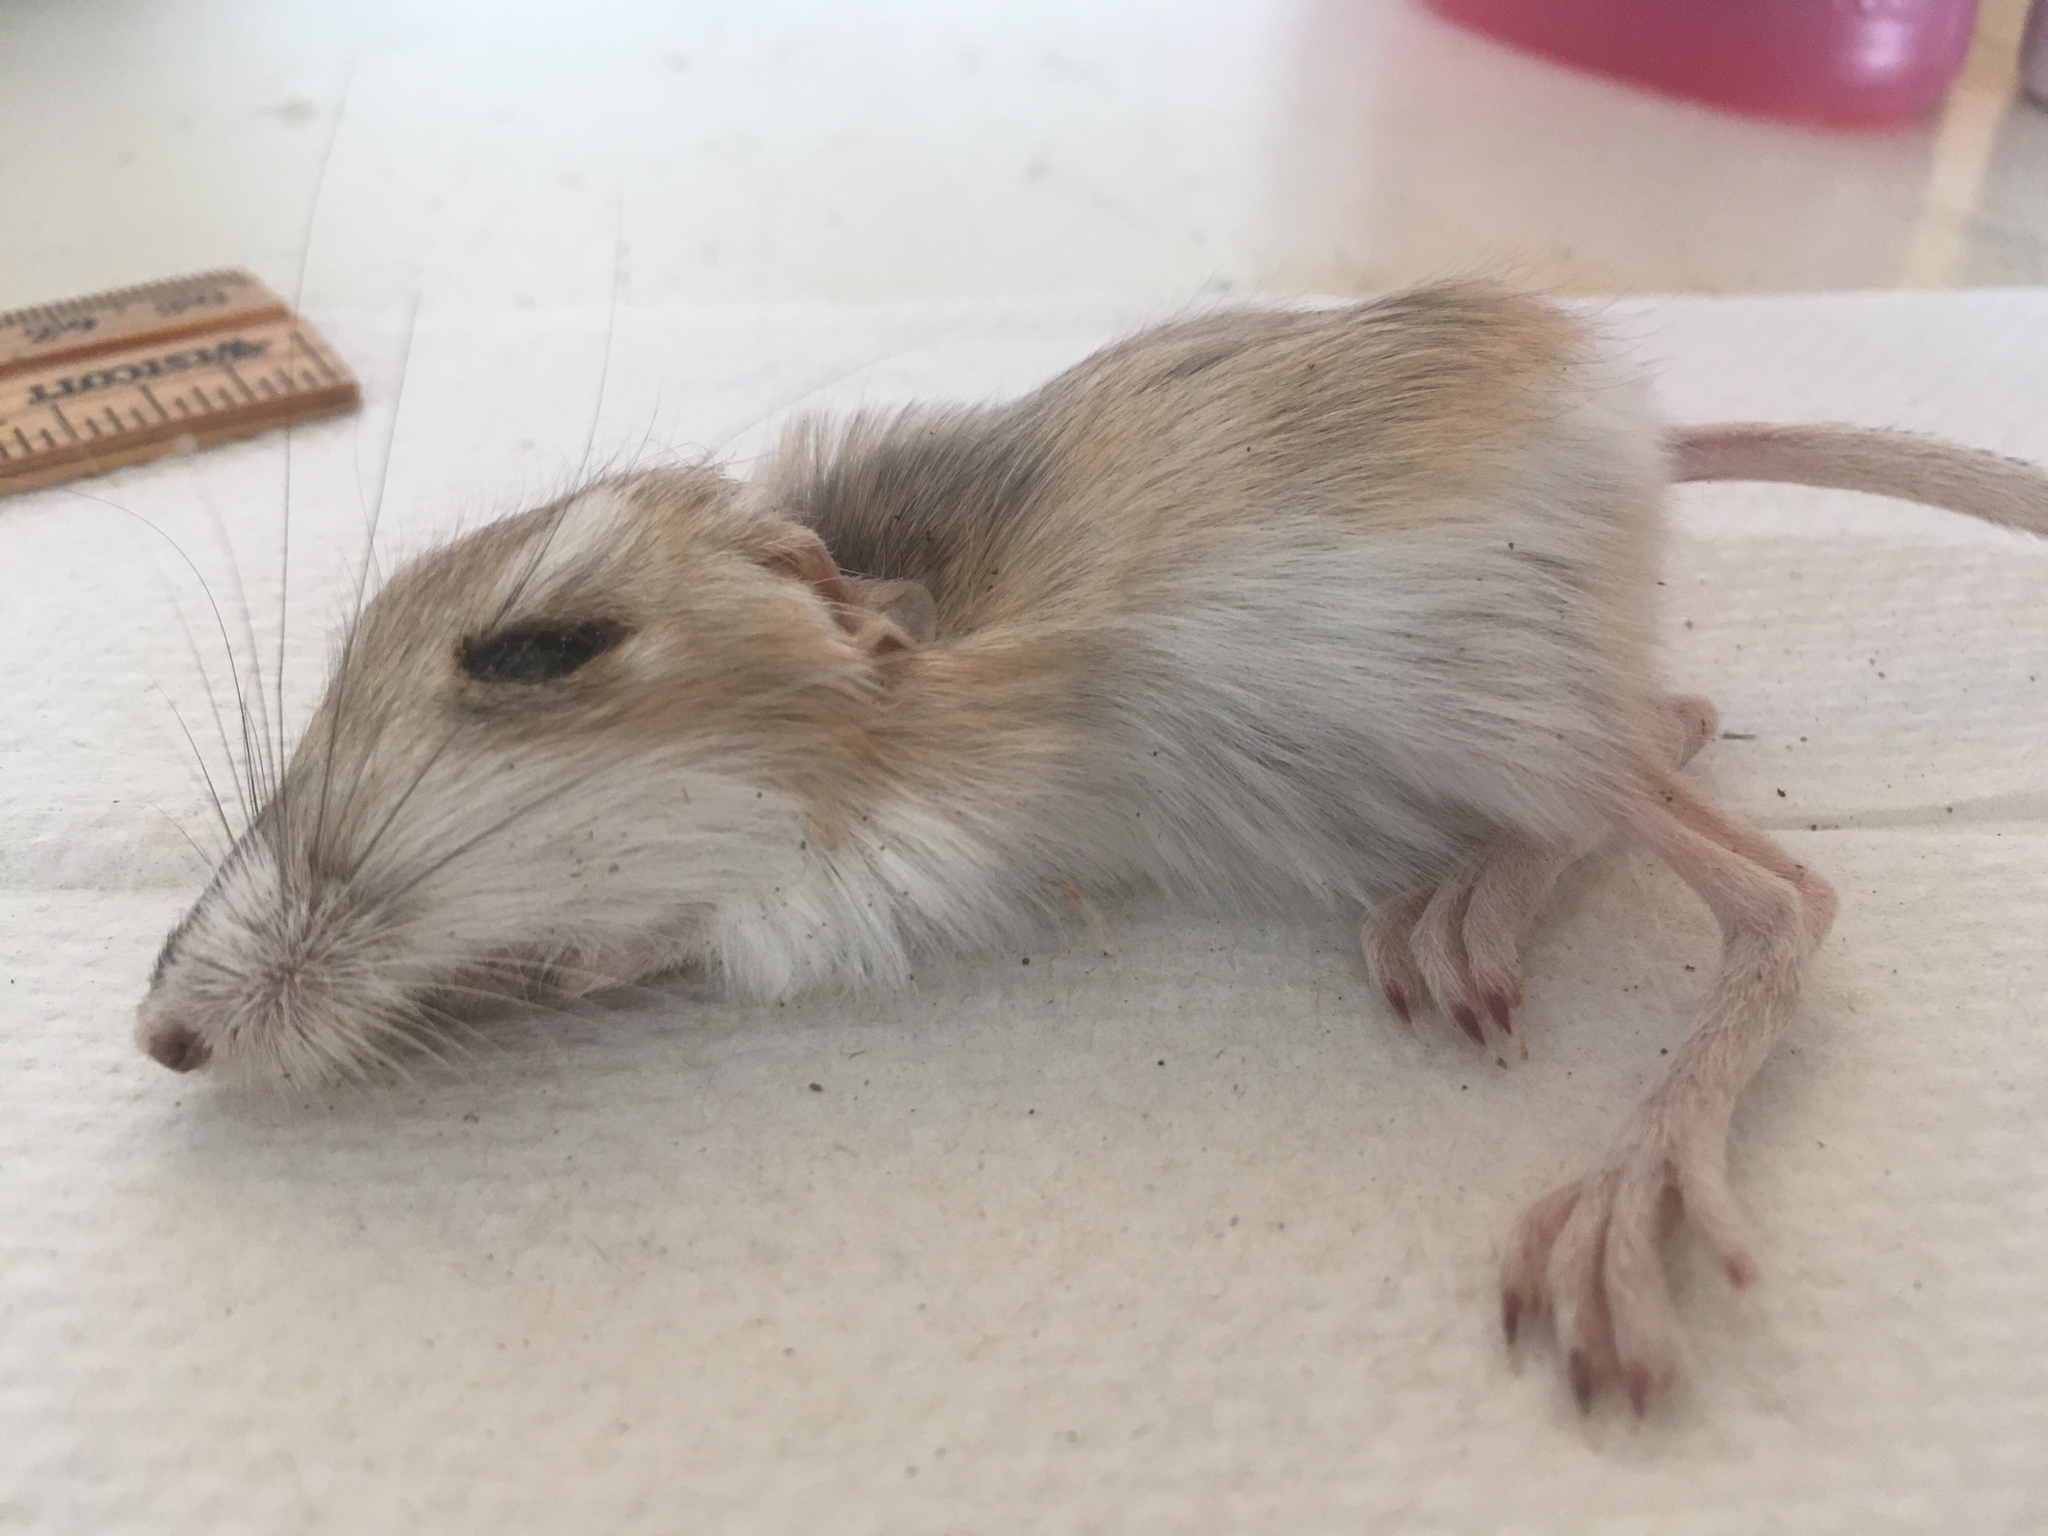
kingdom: Animalia
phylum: Chordata
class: Mammalia
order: Rodentia
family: Heteromyidae
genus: Dipodomys
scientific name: Dipodomys merriami
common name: Merriam's kangaroo rat
